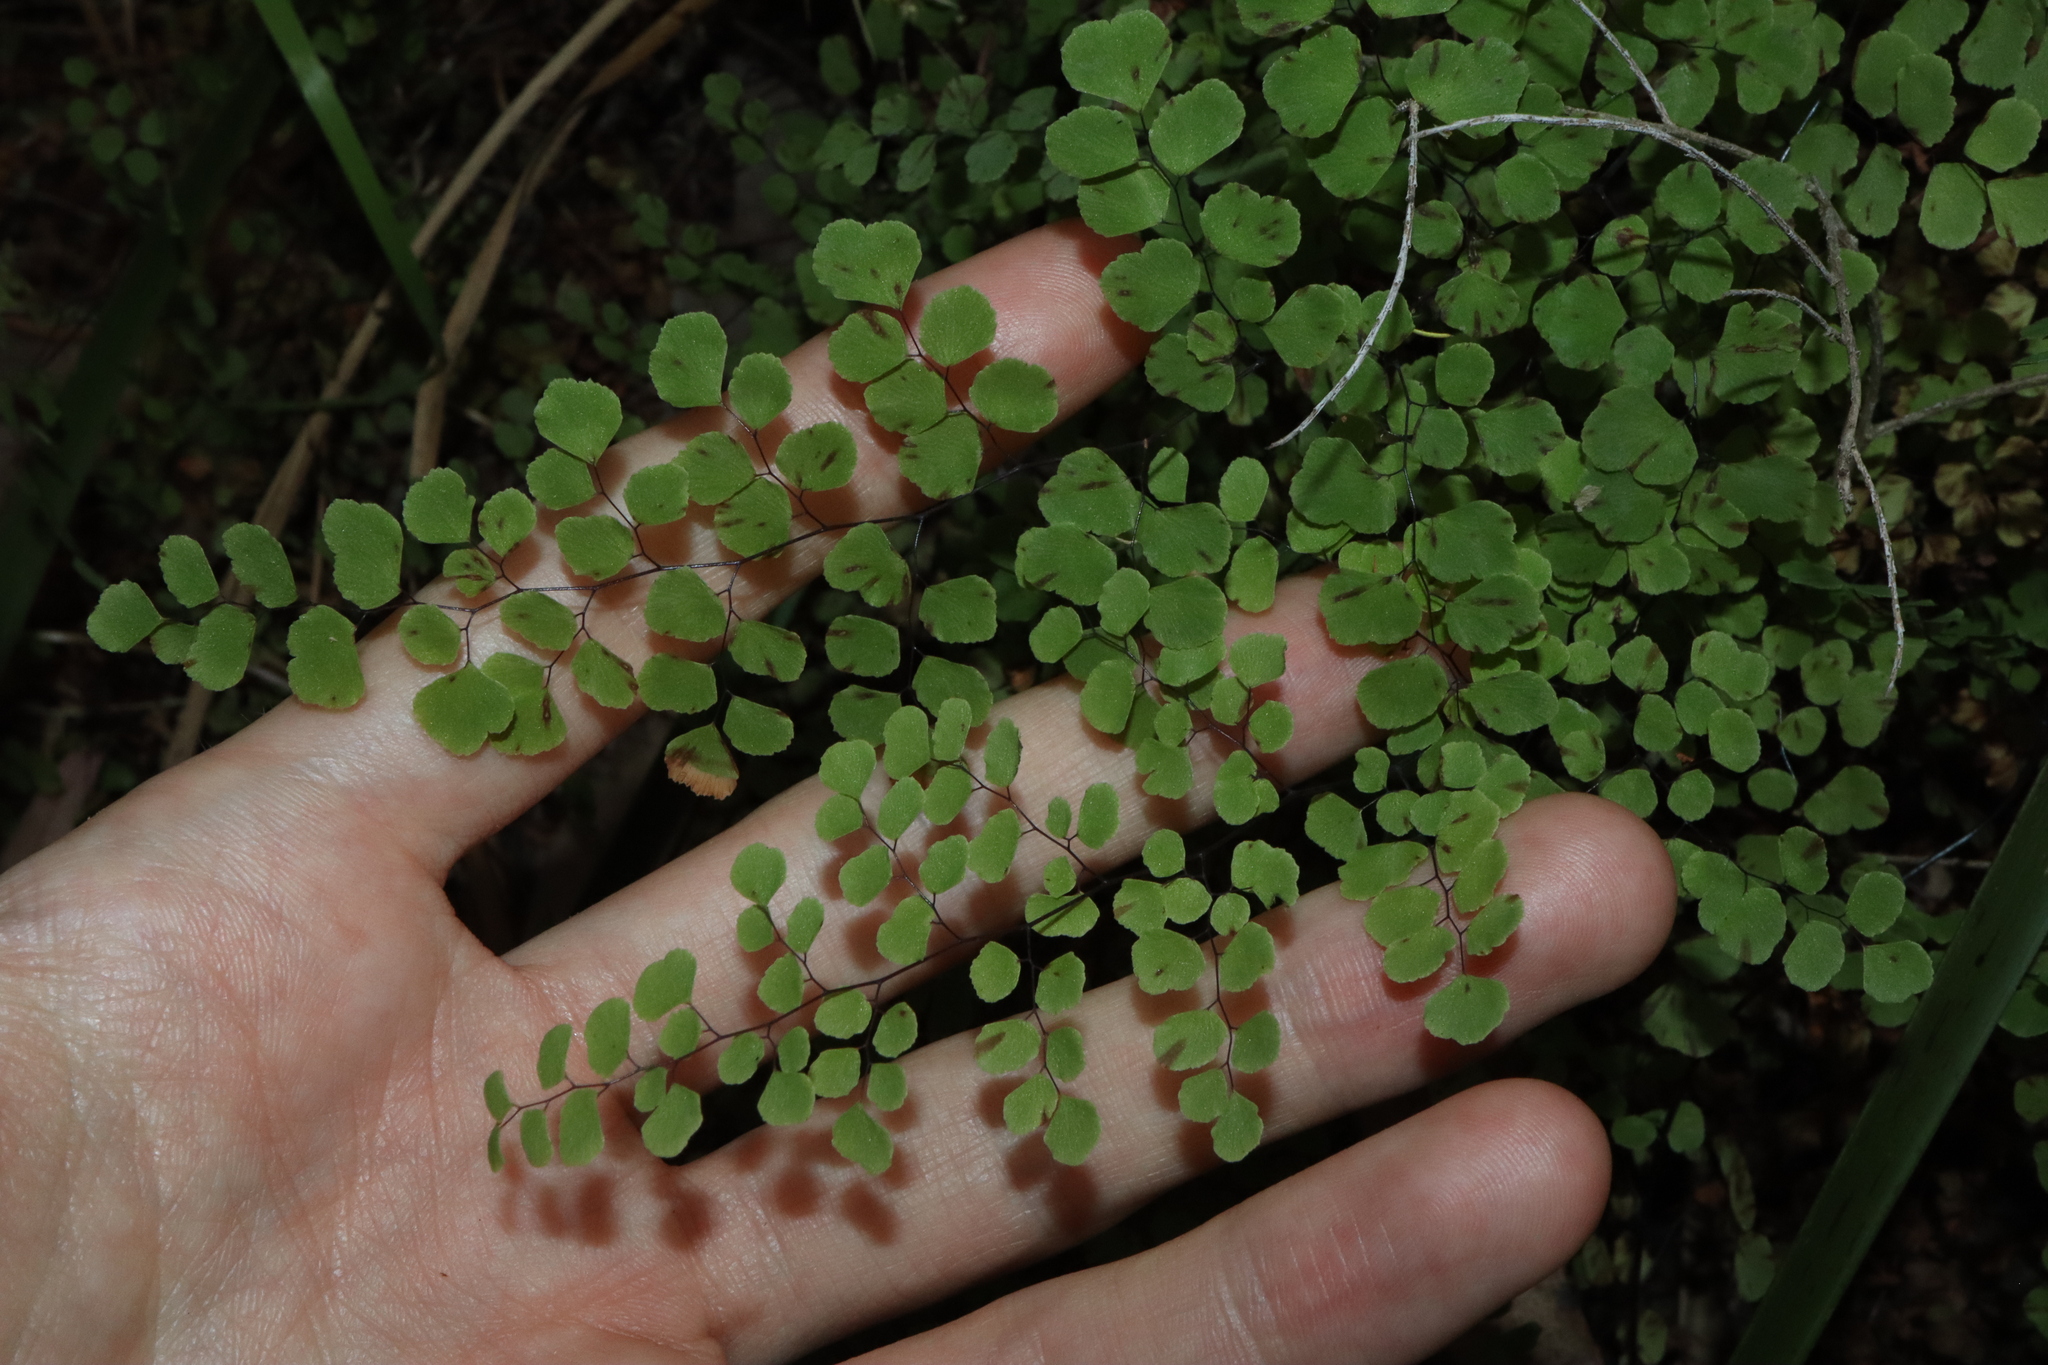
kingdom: Plantae
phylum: Tracheophyta
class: Polypodiopsida
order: Polypodiales
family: Pteridaceae
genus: Adiantum
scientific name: Adiantum aethiopicum
